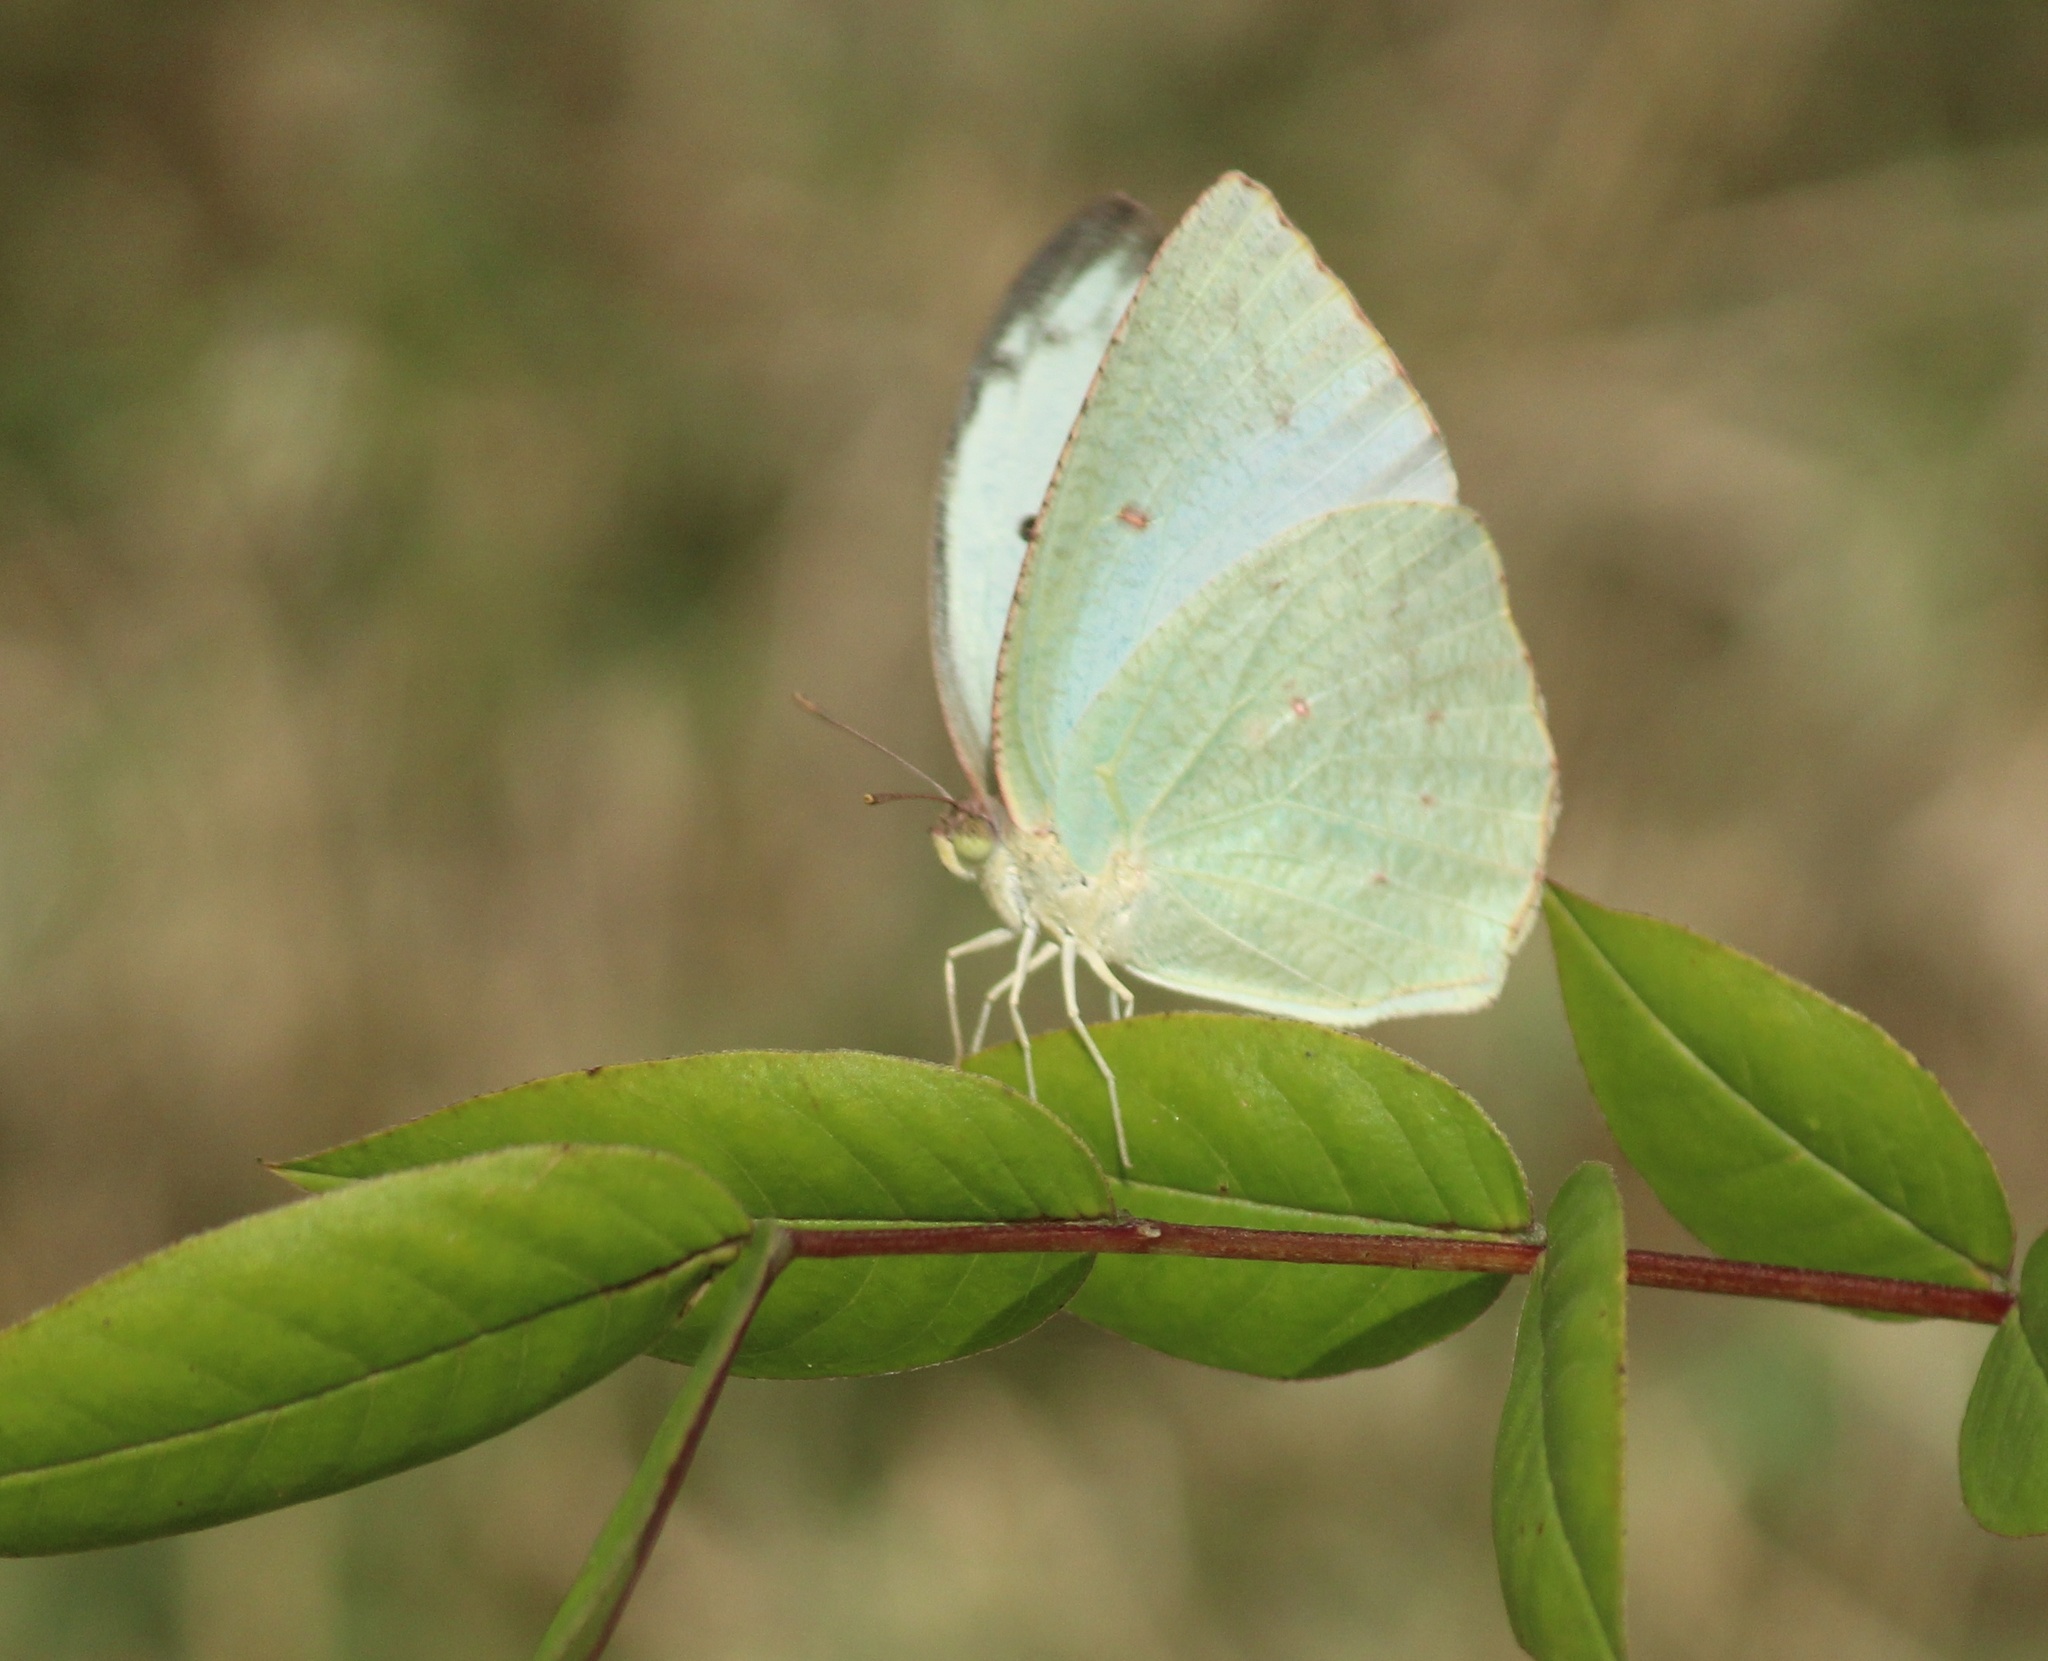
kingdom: Animalia
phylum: Arthropoda
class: Insecta
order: Lepidoptera
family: Pieridae
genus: Catopsilia
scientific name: Catopsilia pyranthe
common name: Mottled emigrant
